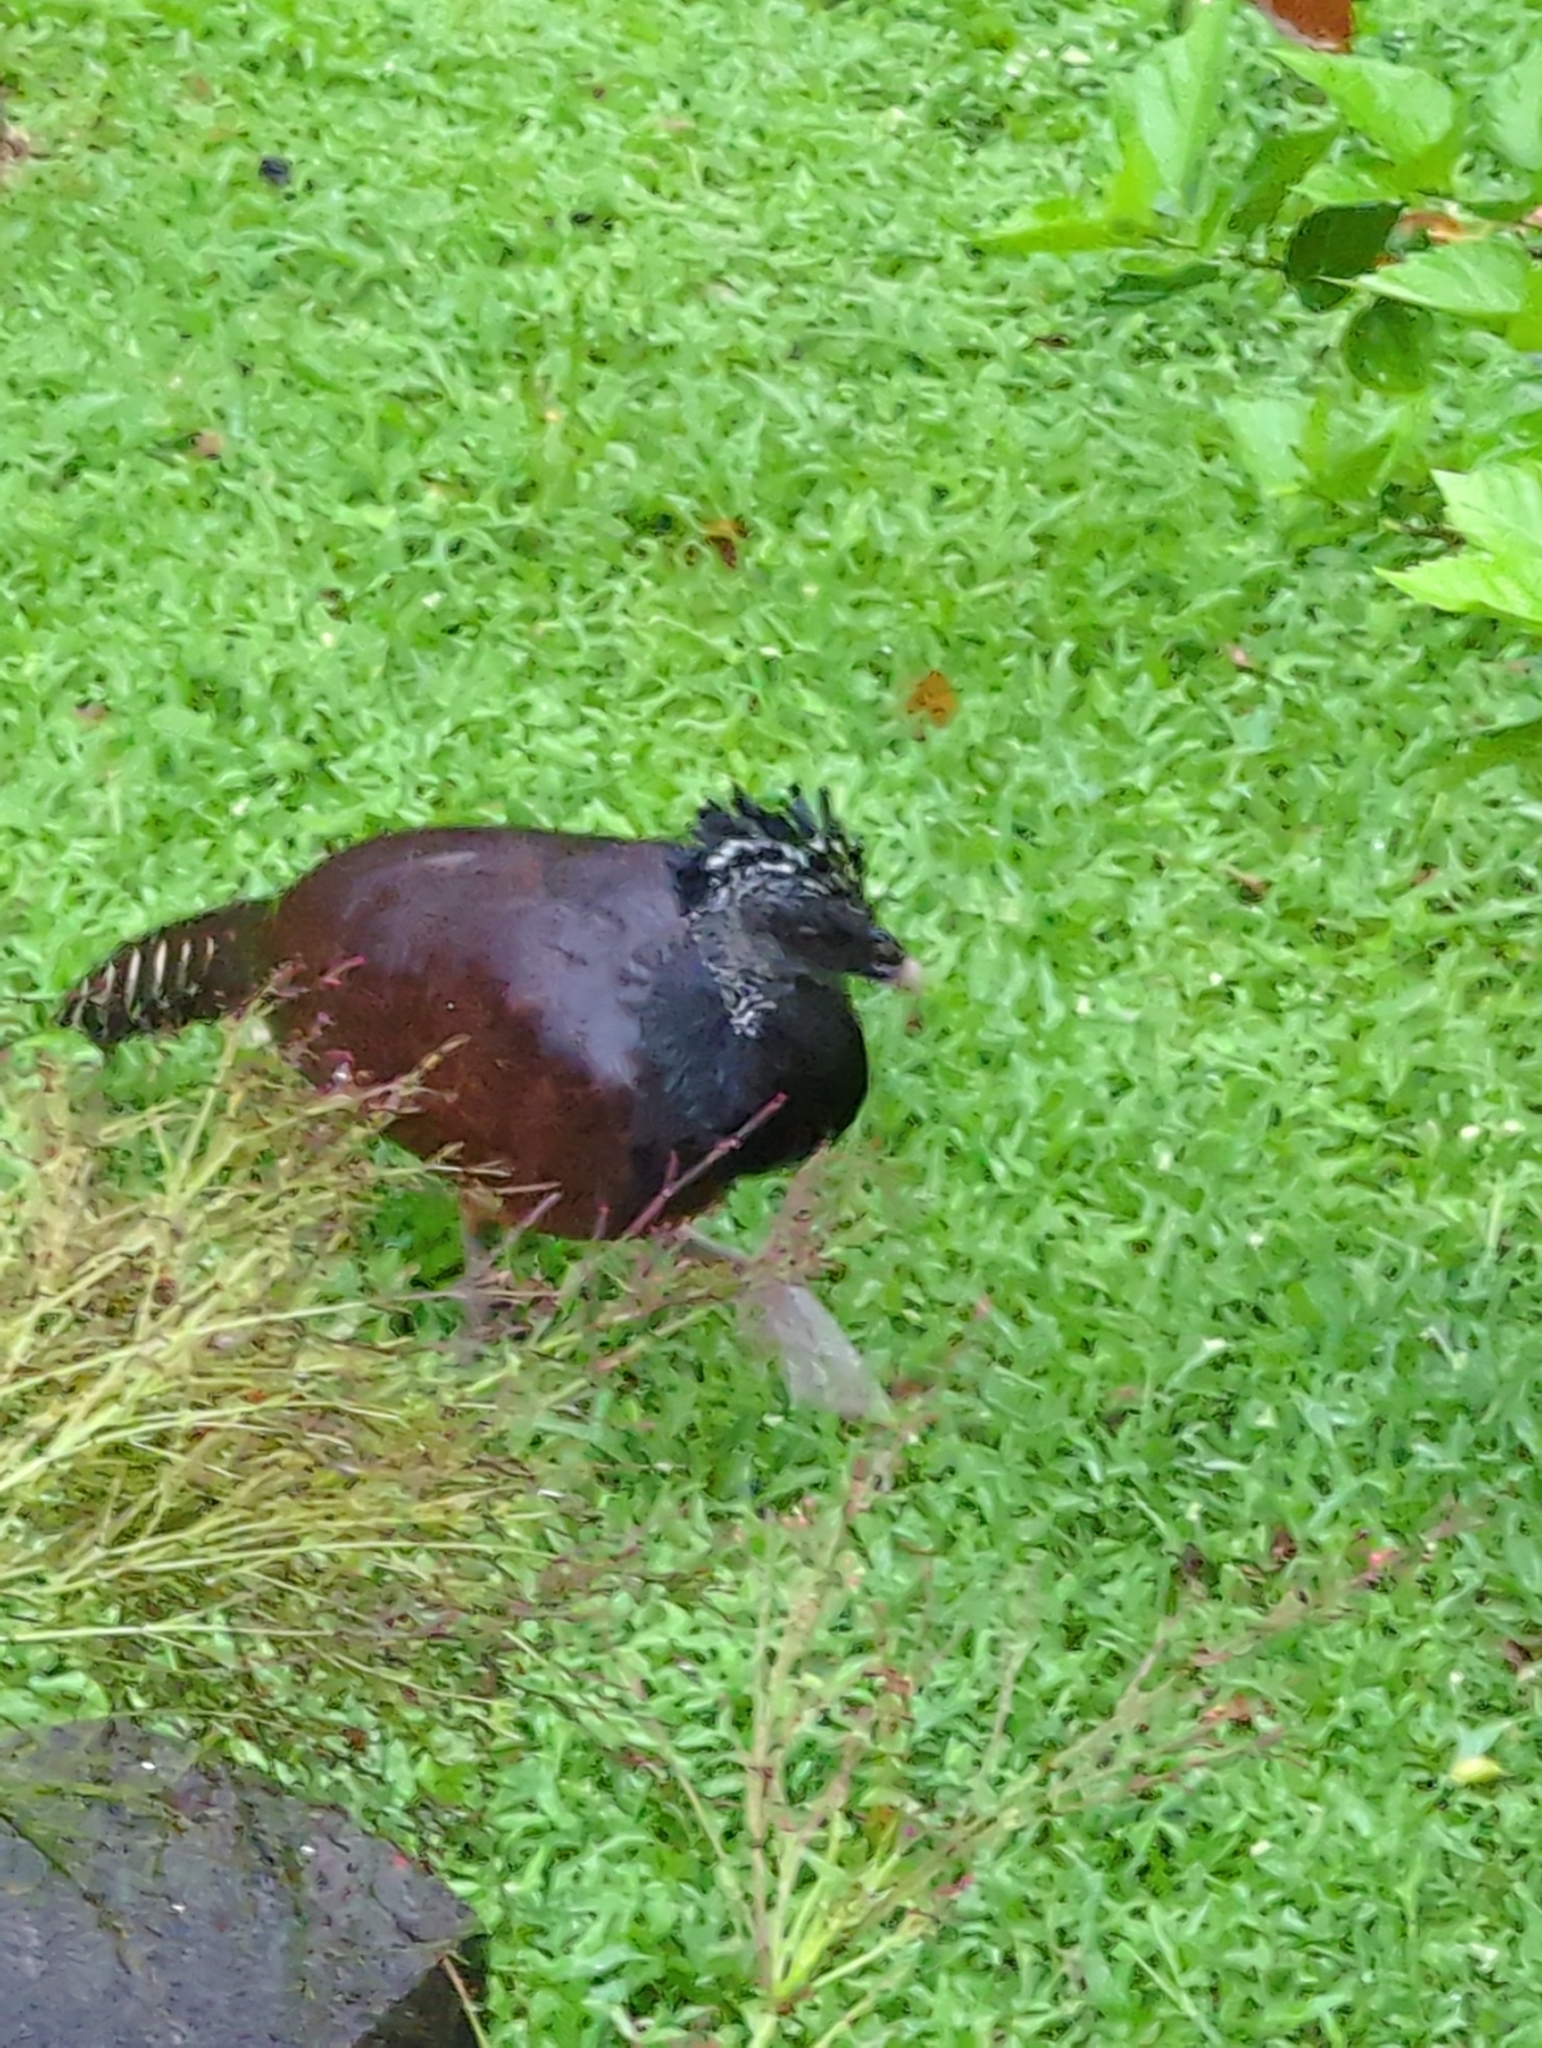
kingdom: Animalia
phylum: Chordata
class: Aves
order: Galliformes
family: Cracidae
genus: Crax
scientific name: Crax rubra
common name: Great curassow
